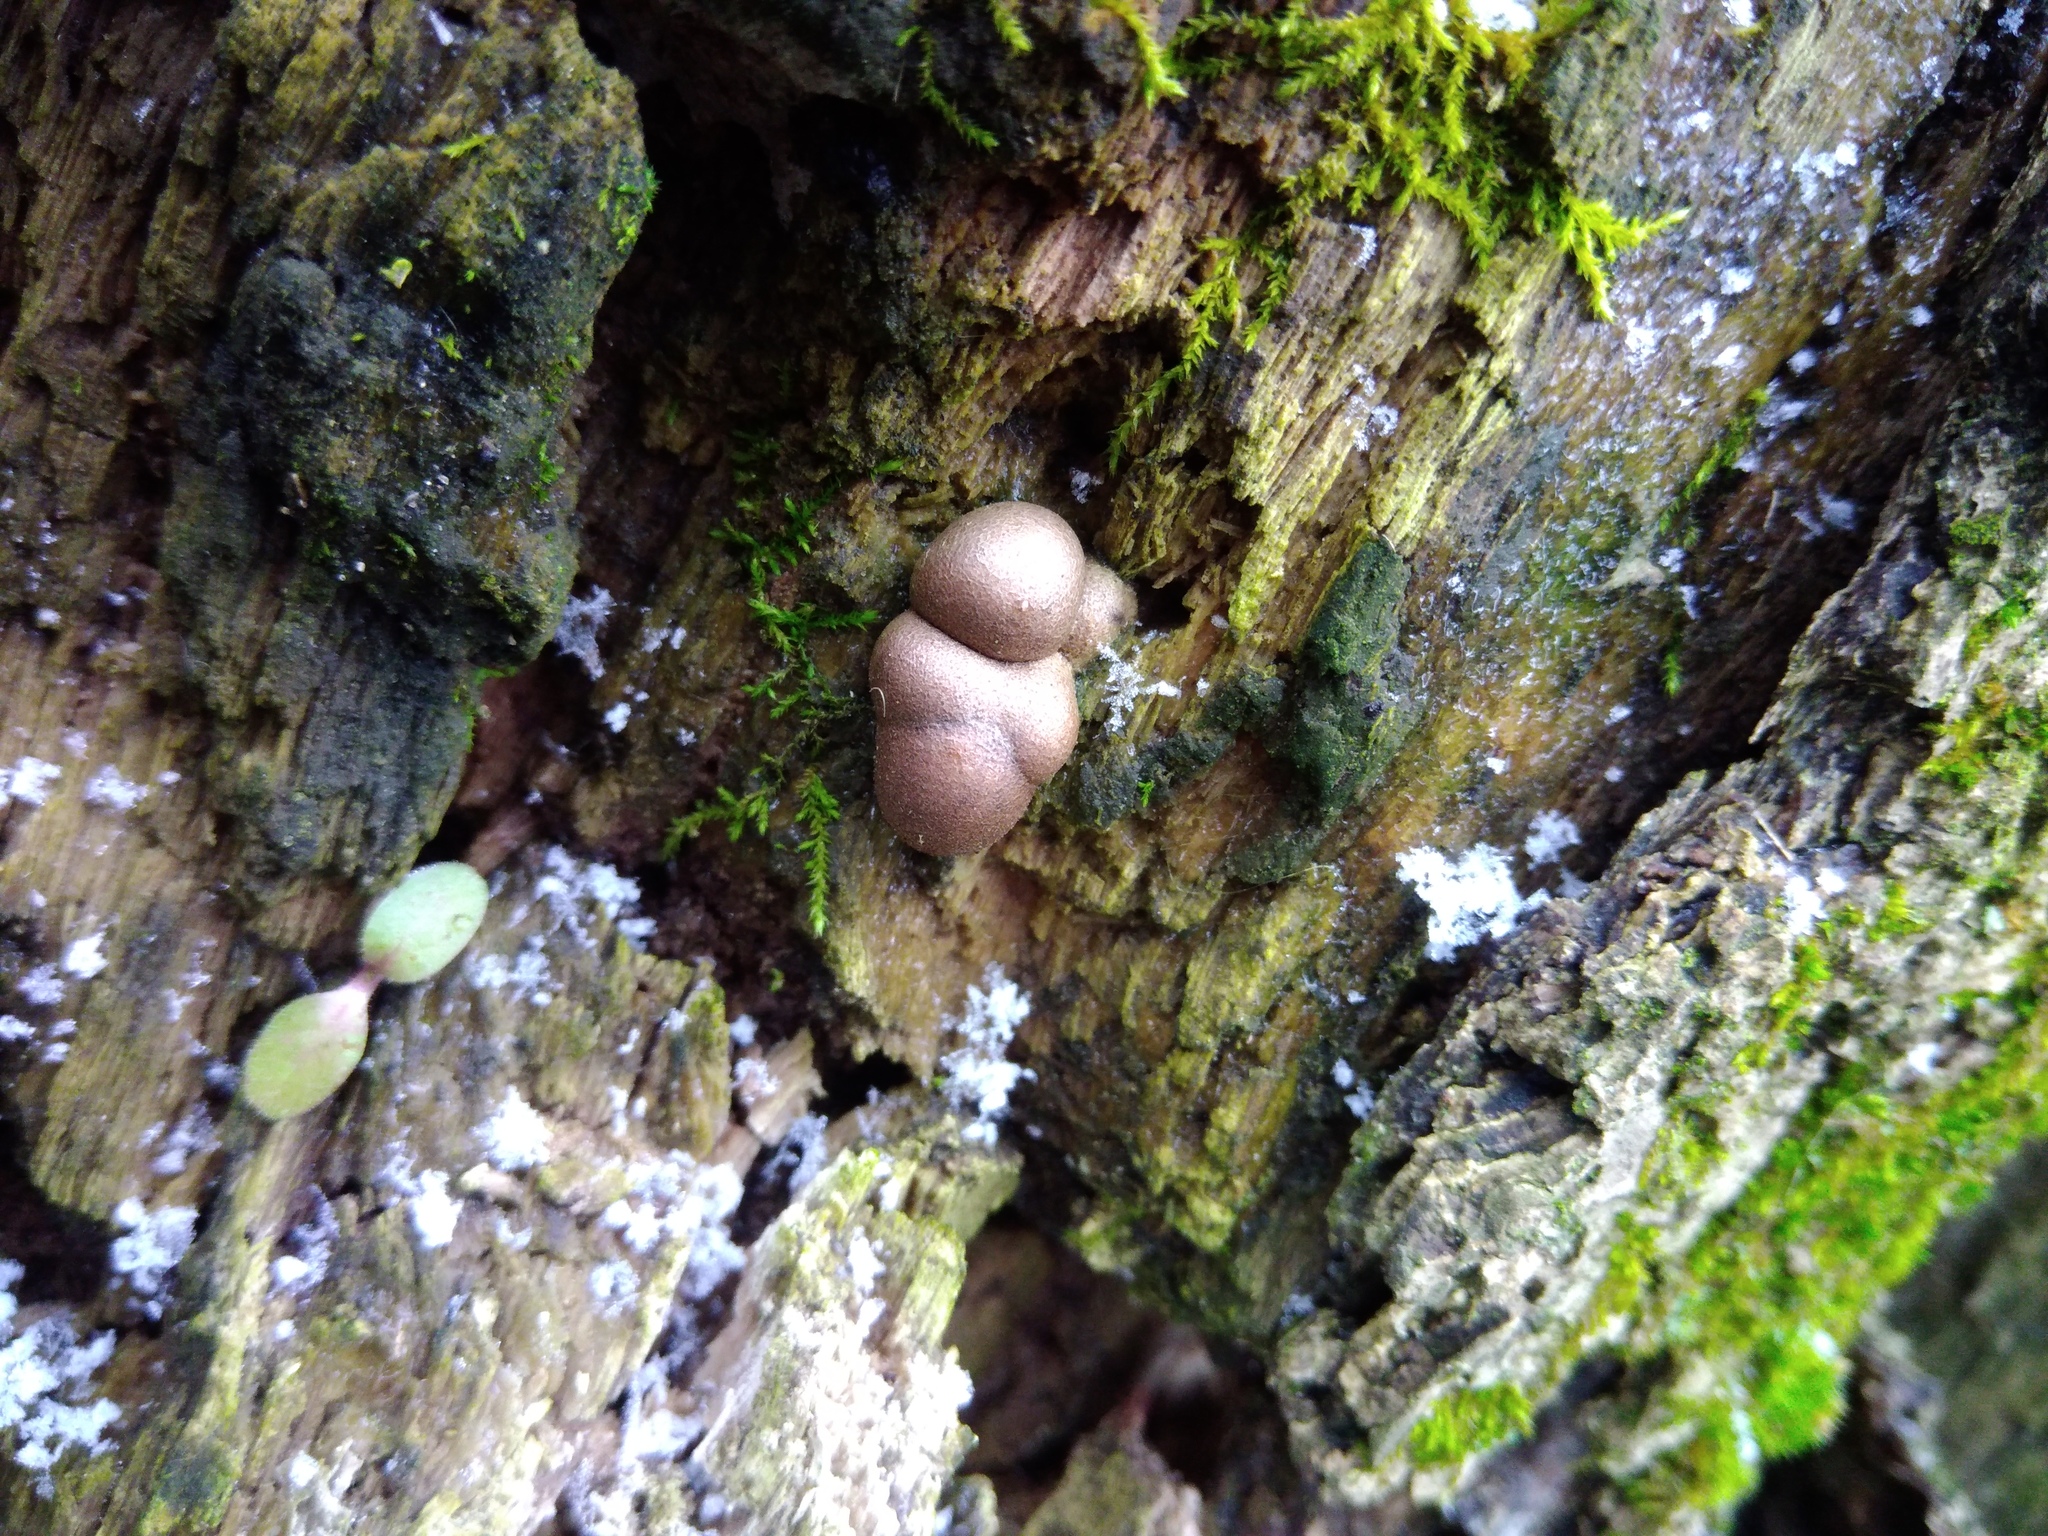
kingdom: Protozoa
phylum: Mycetozoa
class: Myxomycetes
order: Cribrariales
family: Tubiferaceae
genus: Lycogala
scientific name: Lycogala epidendrum
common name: Wolf's milk
